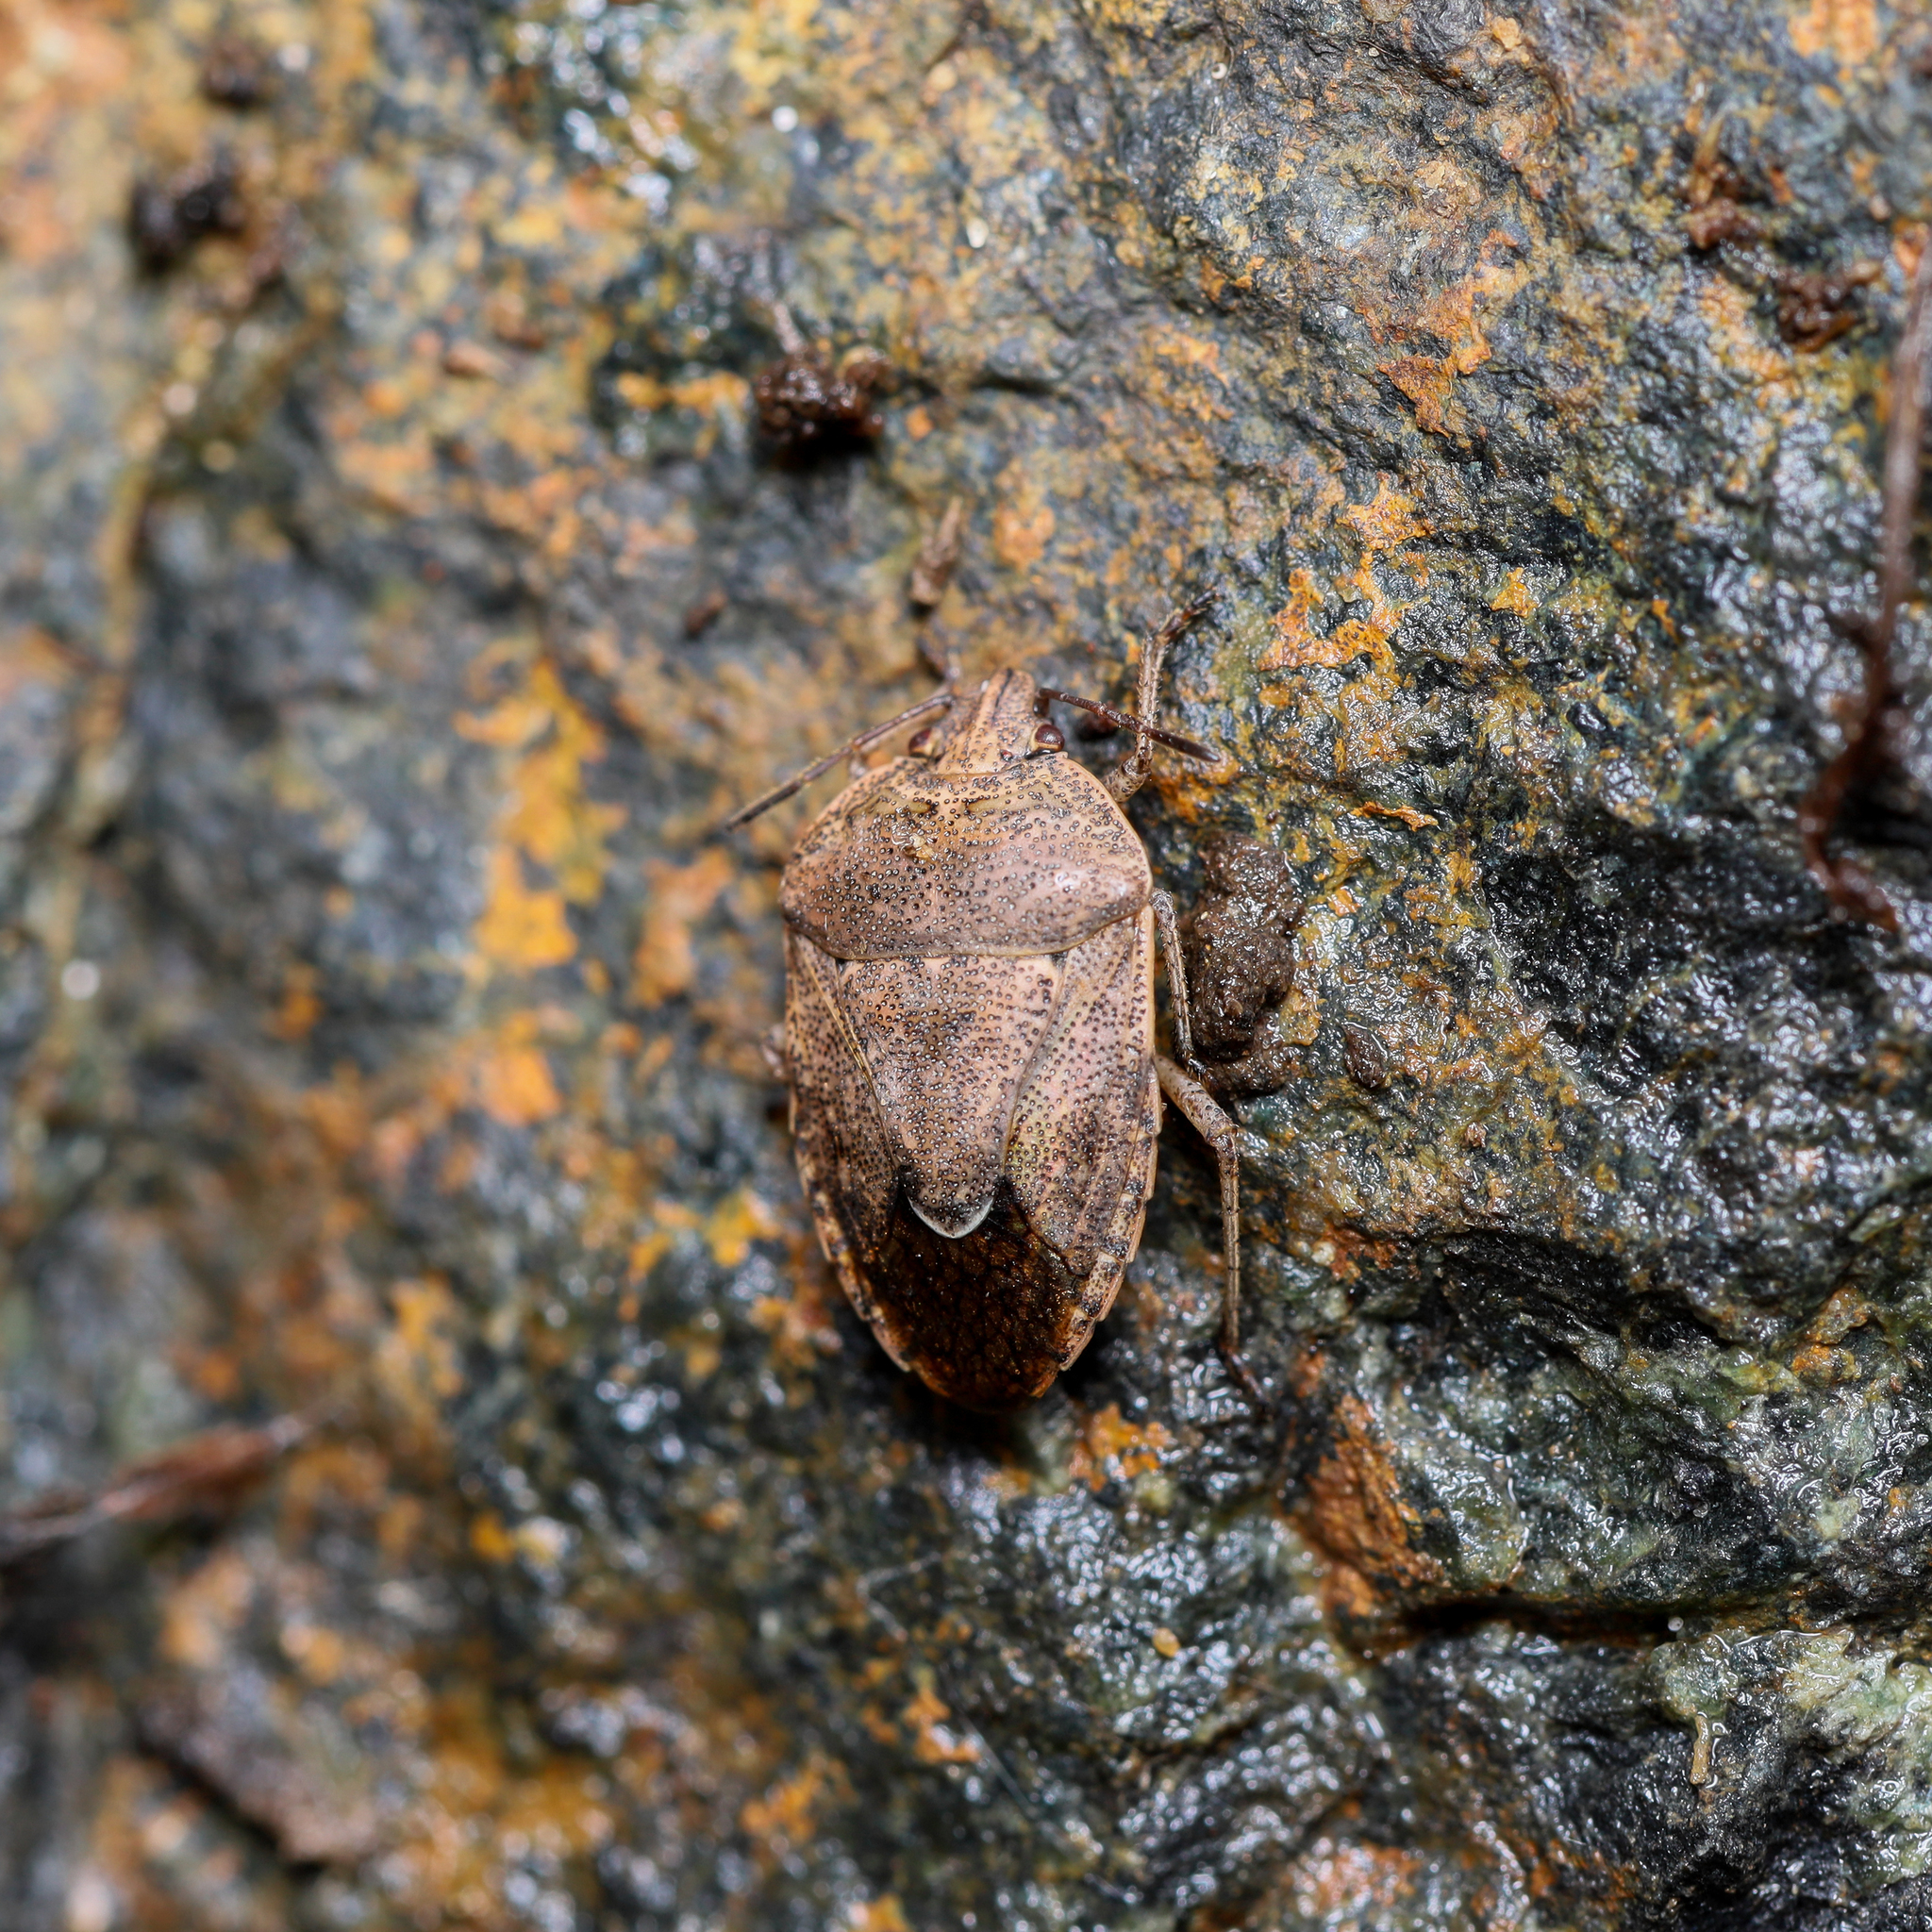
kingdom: Animalia
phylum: Arthropoda
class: Insecta
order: Hemiptera
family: Pentatomidae
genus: Hymenarcys
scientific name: Hymenarcys nervosa
